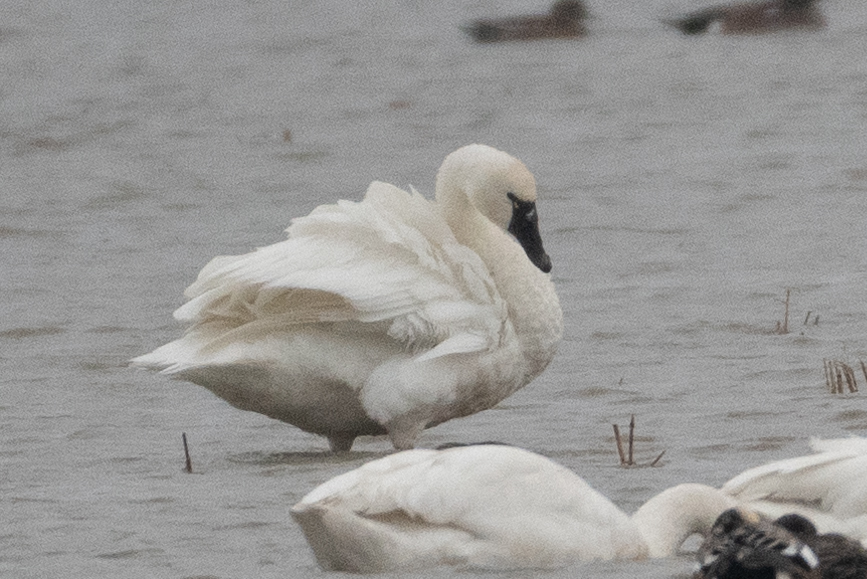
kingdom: Animalia
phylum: Chordata
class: Aves
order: Anseriformes
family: Anatidae
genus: Cygnus
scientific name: Cygnus columbianus
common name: Tundra swan
